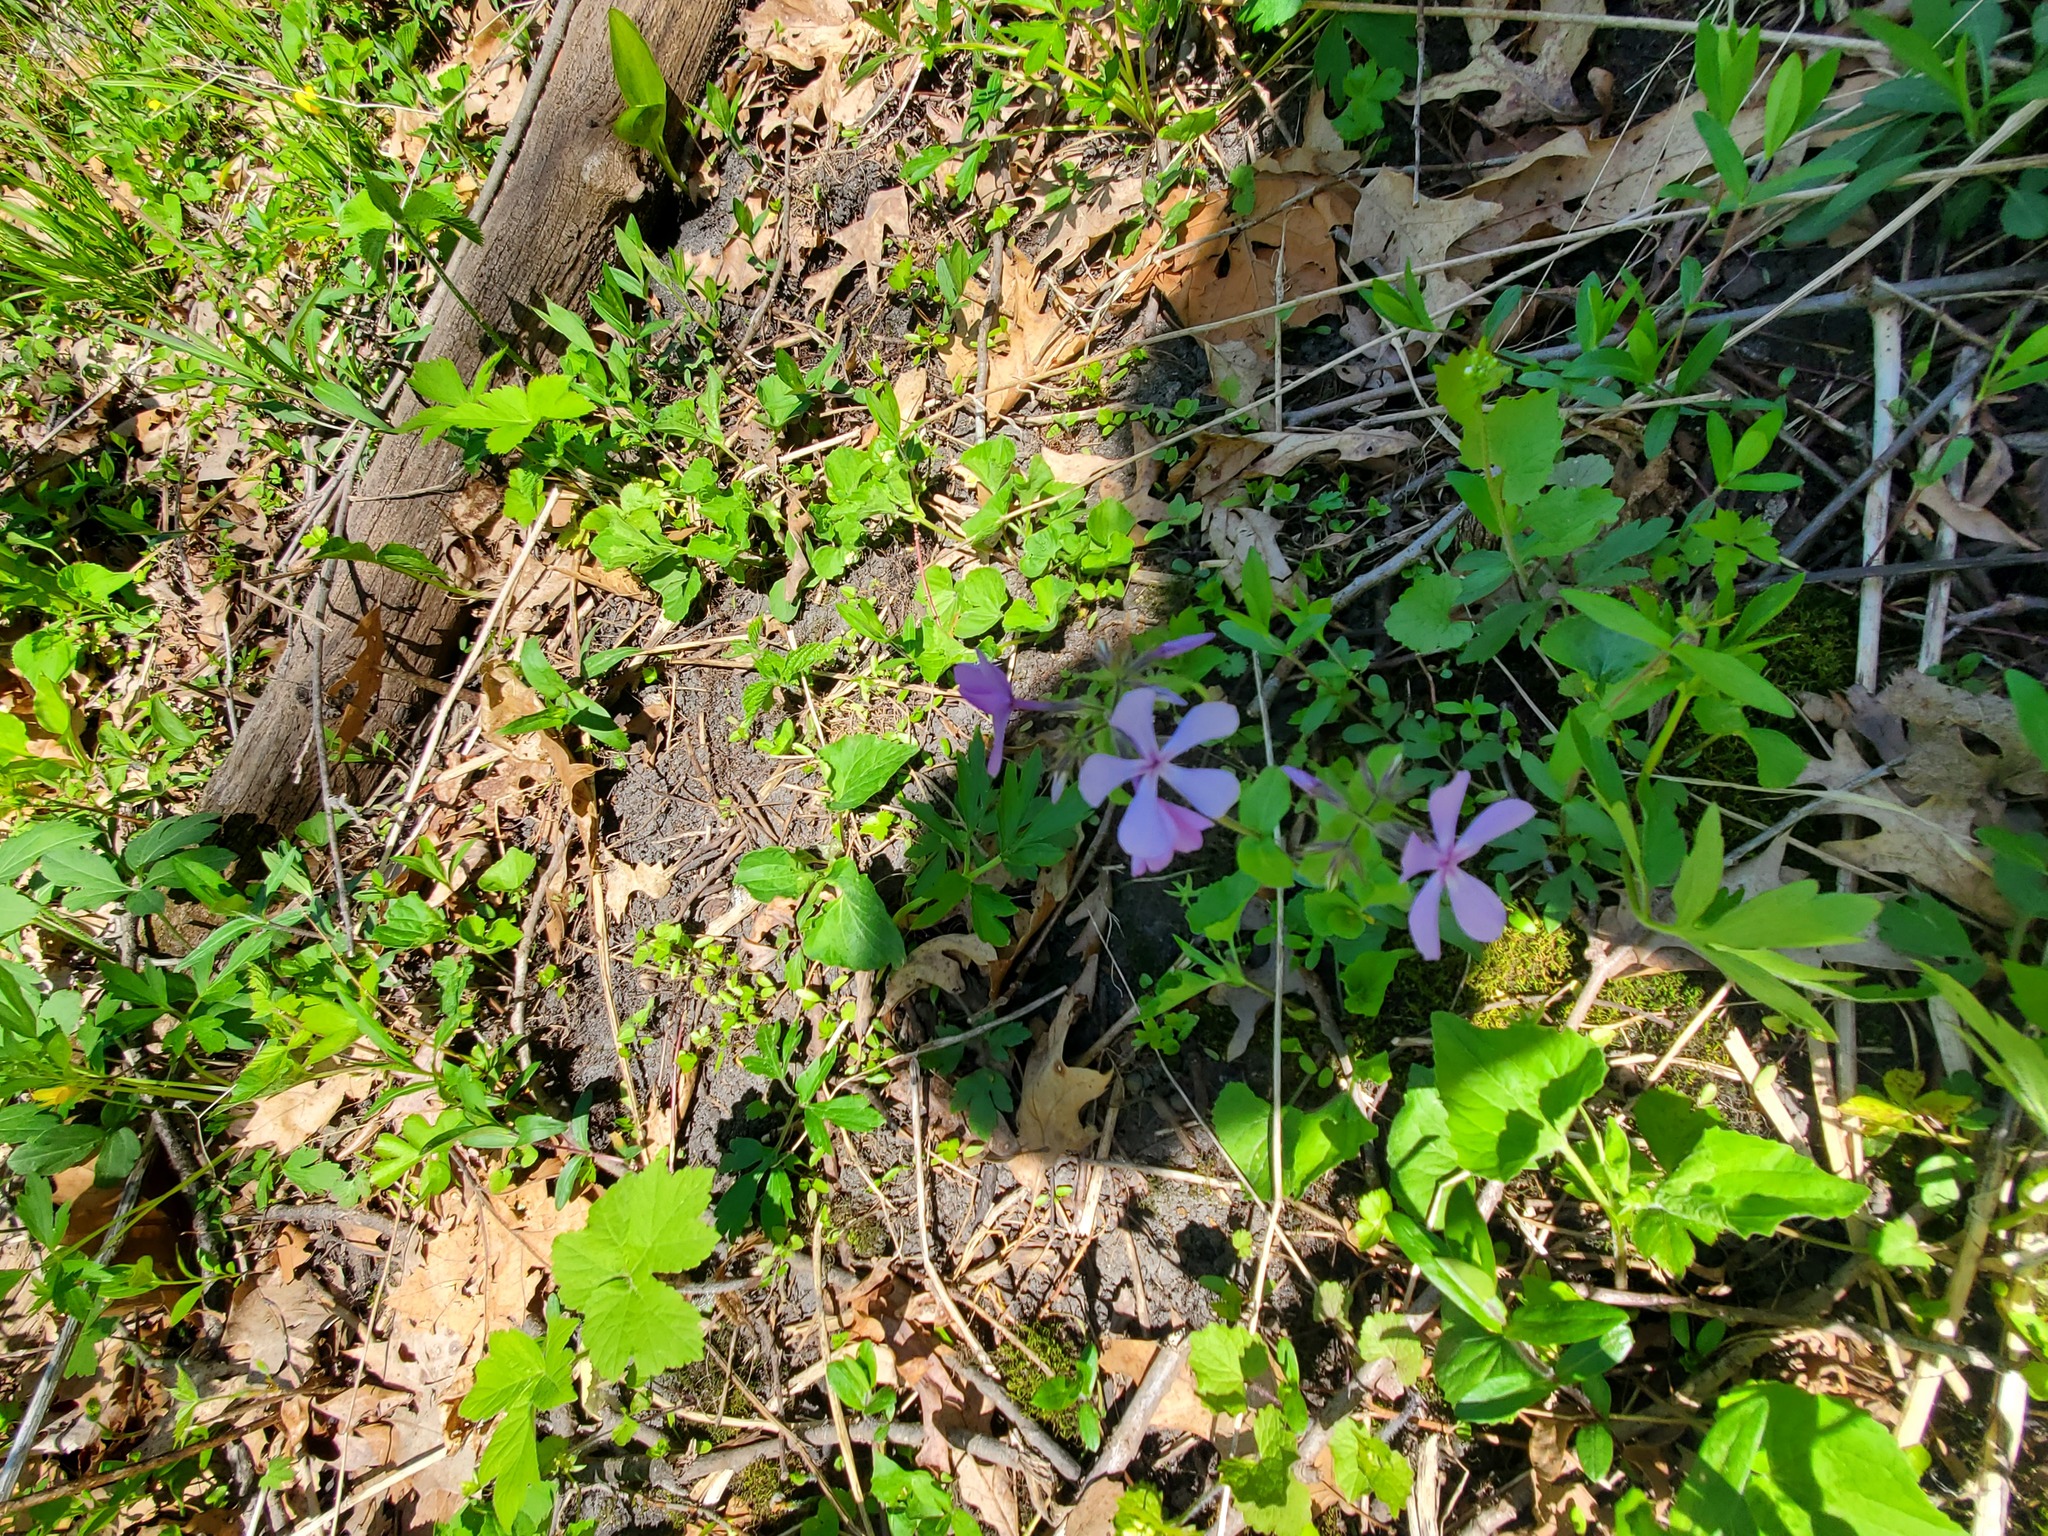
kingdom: Plantae
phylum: Tracheophyta
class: Magnoliopsida
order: Ericales
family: Polemoniaceae
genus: Phlox
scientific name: Phlox divaricata
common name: Blue phlox
